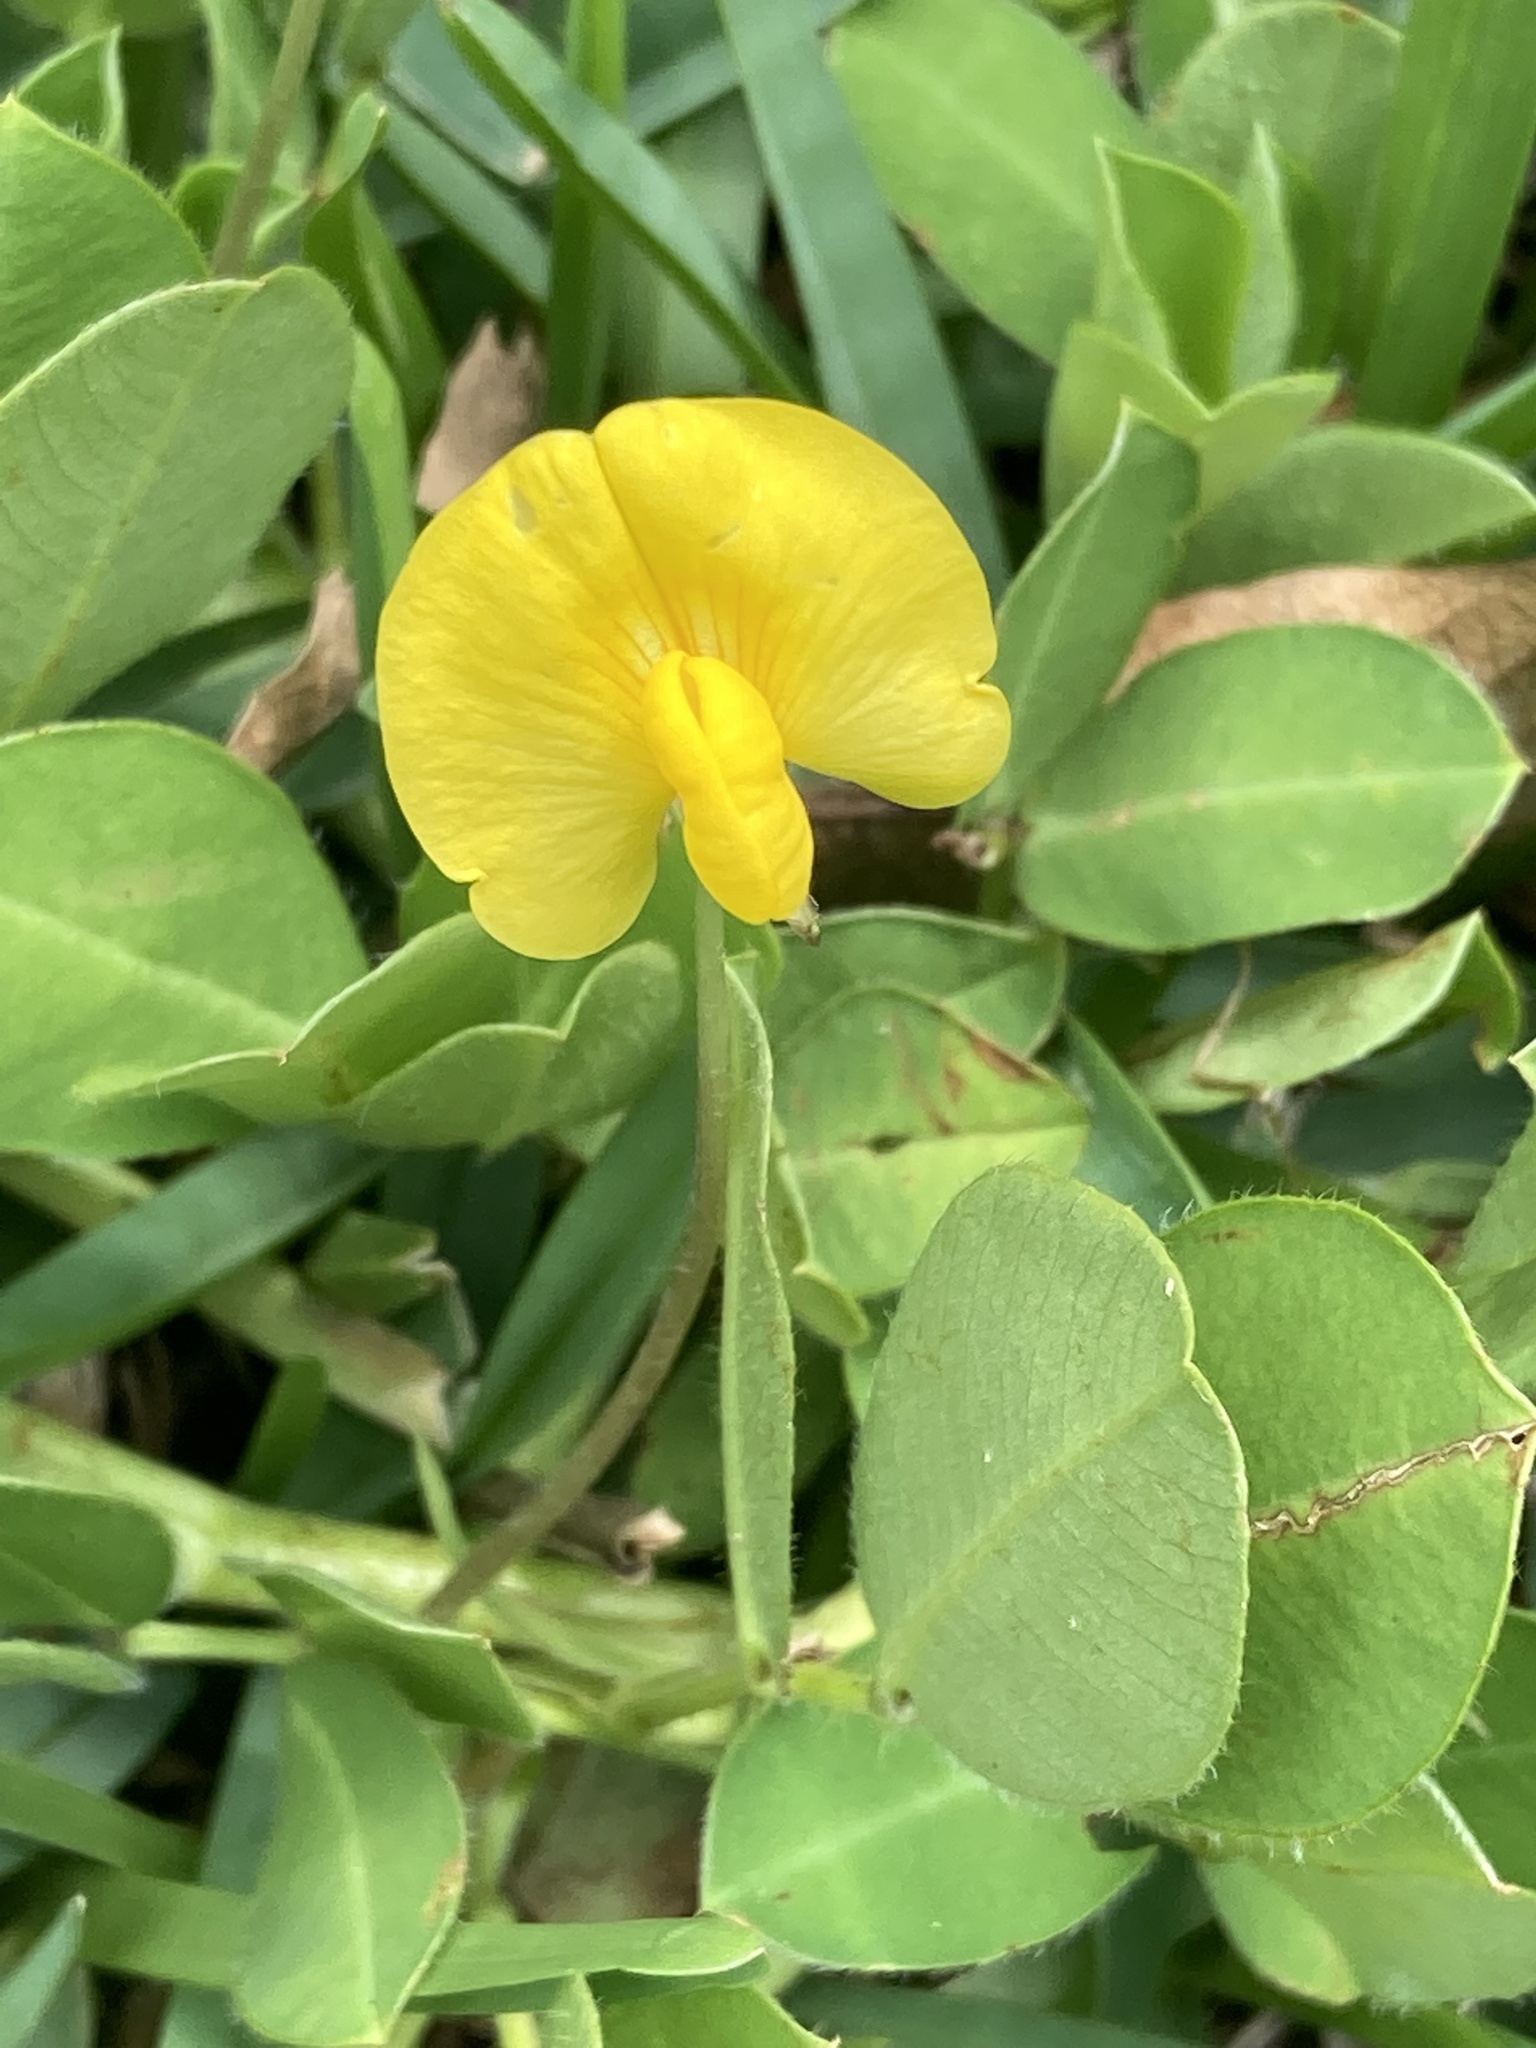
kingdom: Plantae
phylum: Tracheophyta
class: Magnoliopsida
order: Fabales
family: Fabaceae
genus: Arachis
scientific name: Arachis pintoi
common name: Pinto peanut
